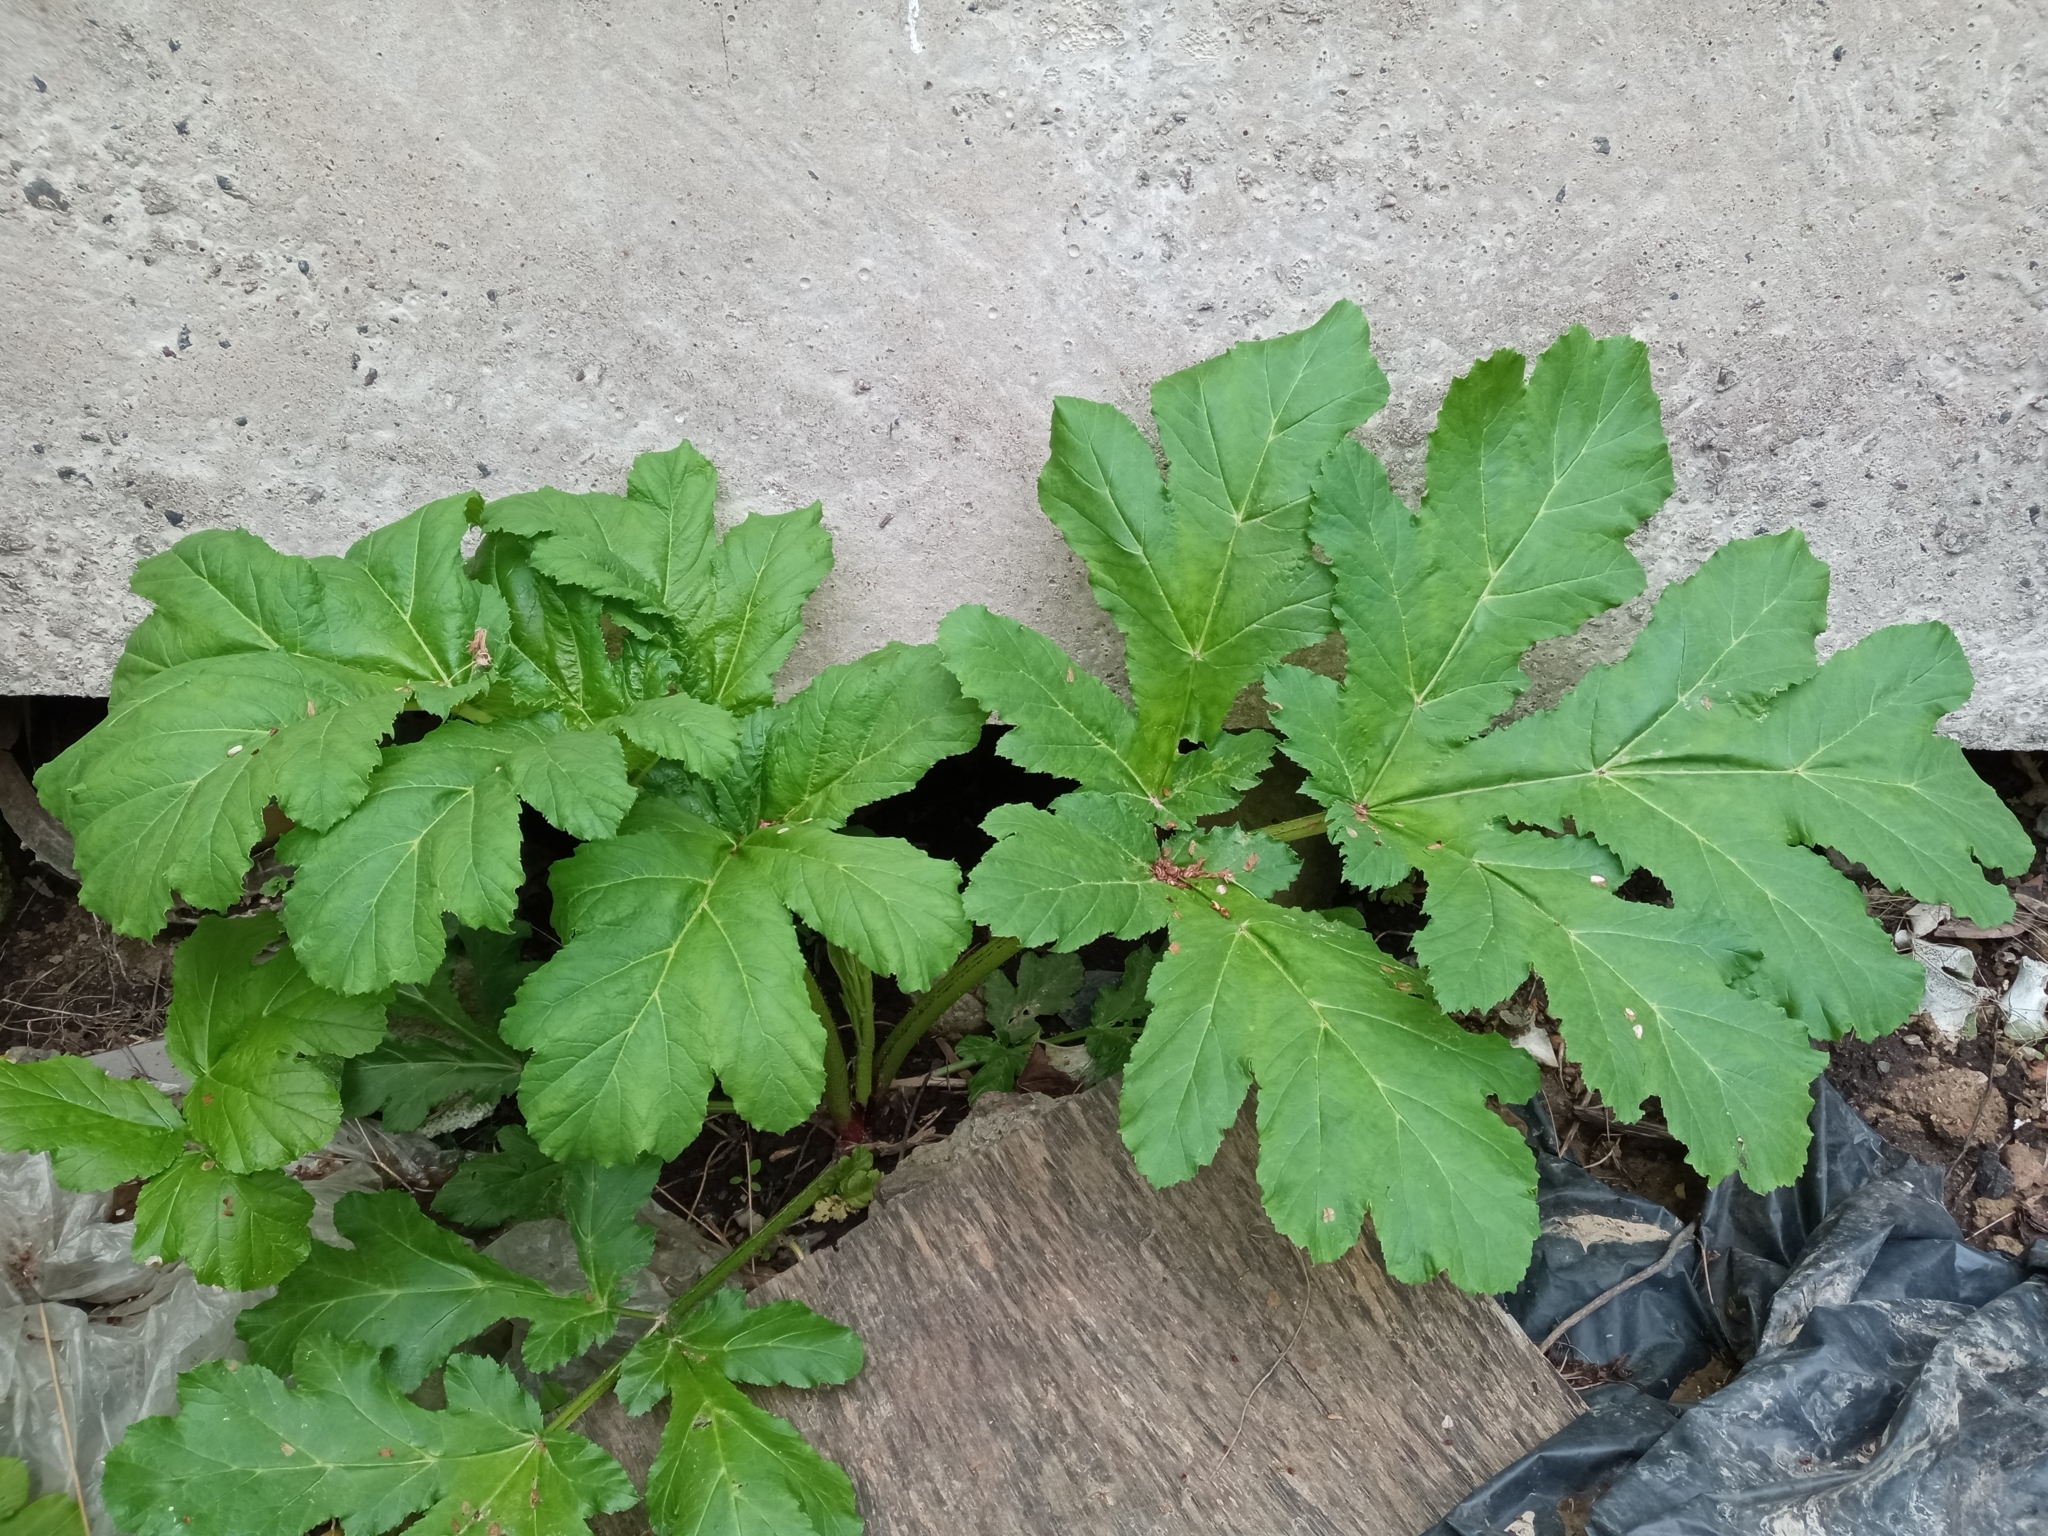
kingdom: Plantae
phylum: Tracheophyta
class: Magnoliopsida
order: Apiales
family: Apiaceae
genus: Heracleum
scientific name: Heracleum sosnowskyi
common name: Sosnowsky's hogweed
